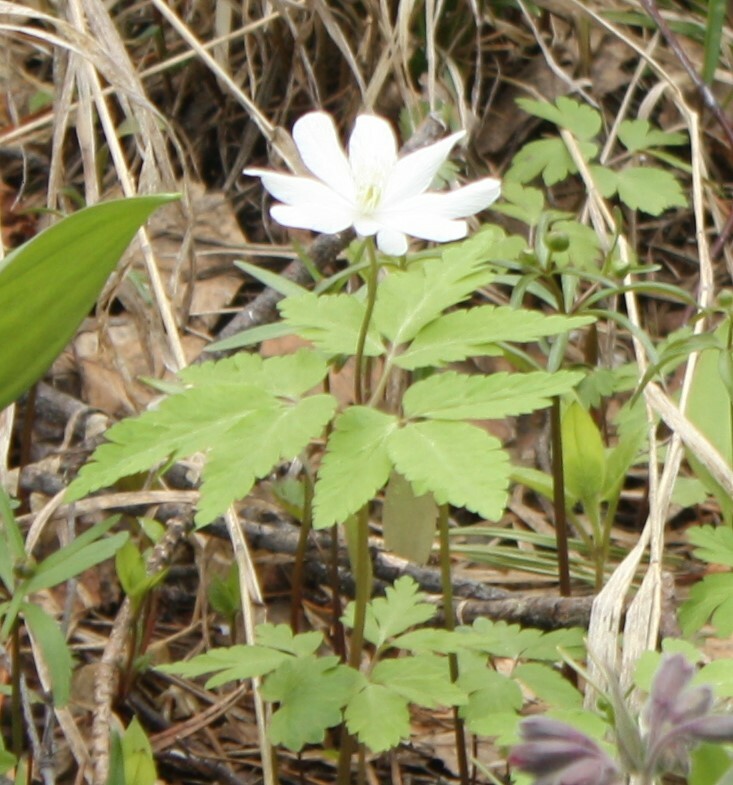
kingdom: Plantae
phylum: Tracheophyta
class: Magnoliopsida
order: Ranunculales
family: Ranunculaceae
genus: Anemone
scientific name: Anemone altaica
